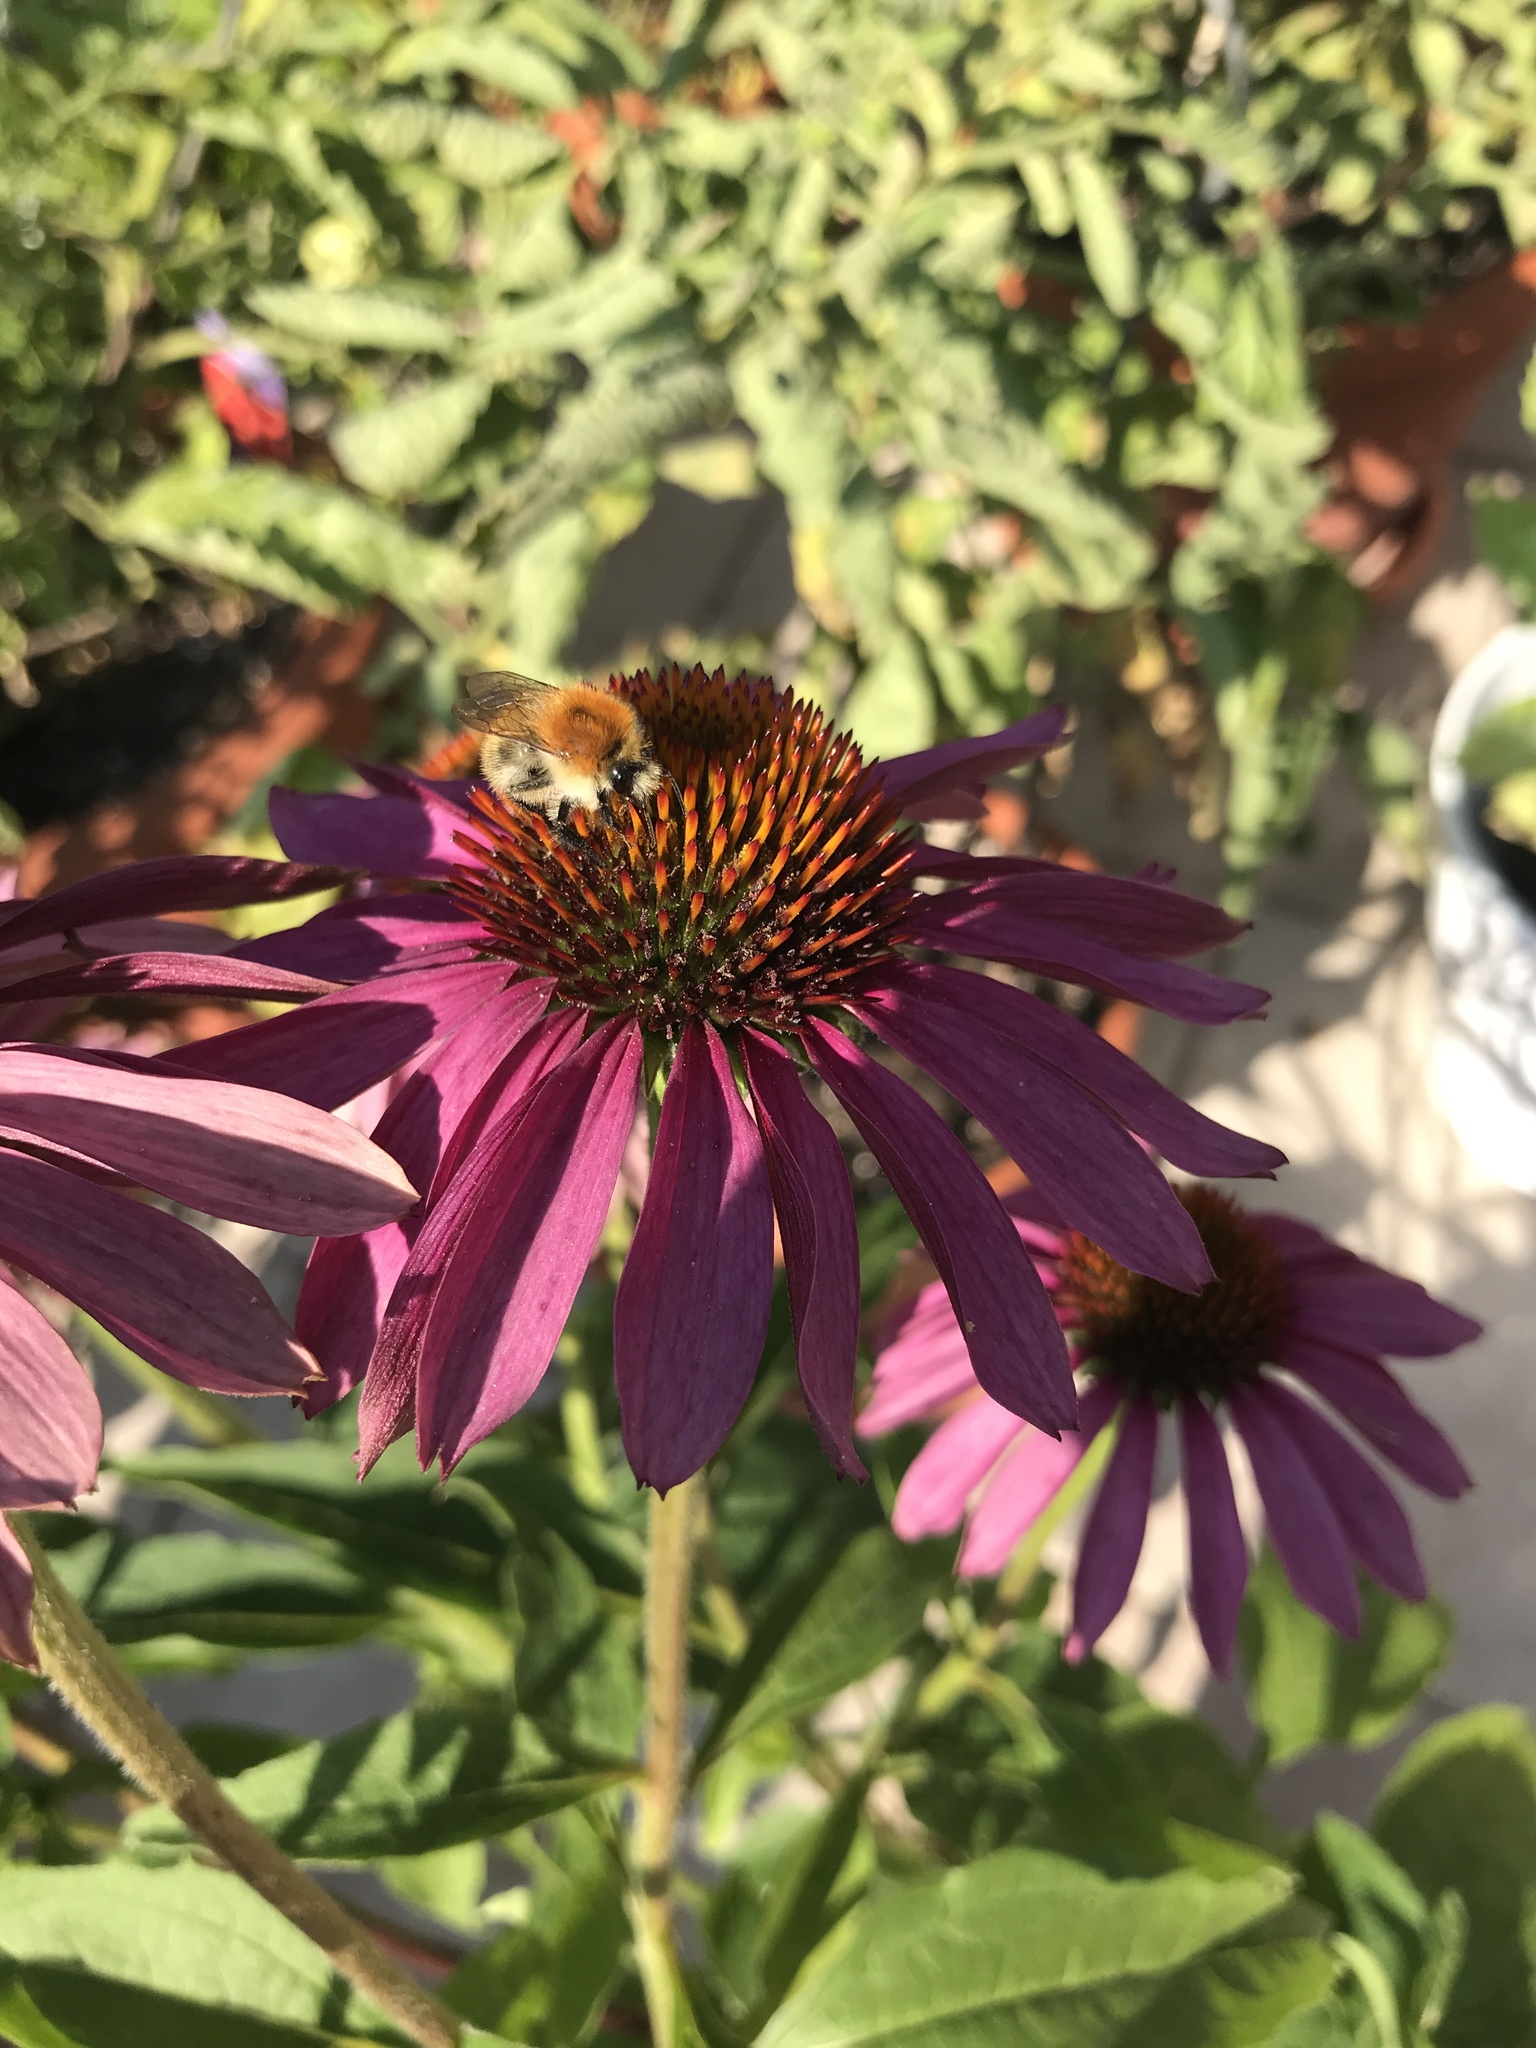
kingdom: Animalia
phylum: Arthropoda
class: Insecta
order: Hymenoptera
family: Apidae
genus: Bombus
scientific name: Bombus pascuorum
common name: Common carder bee
